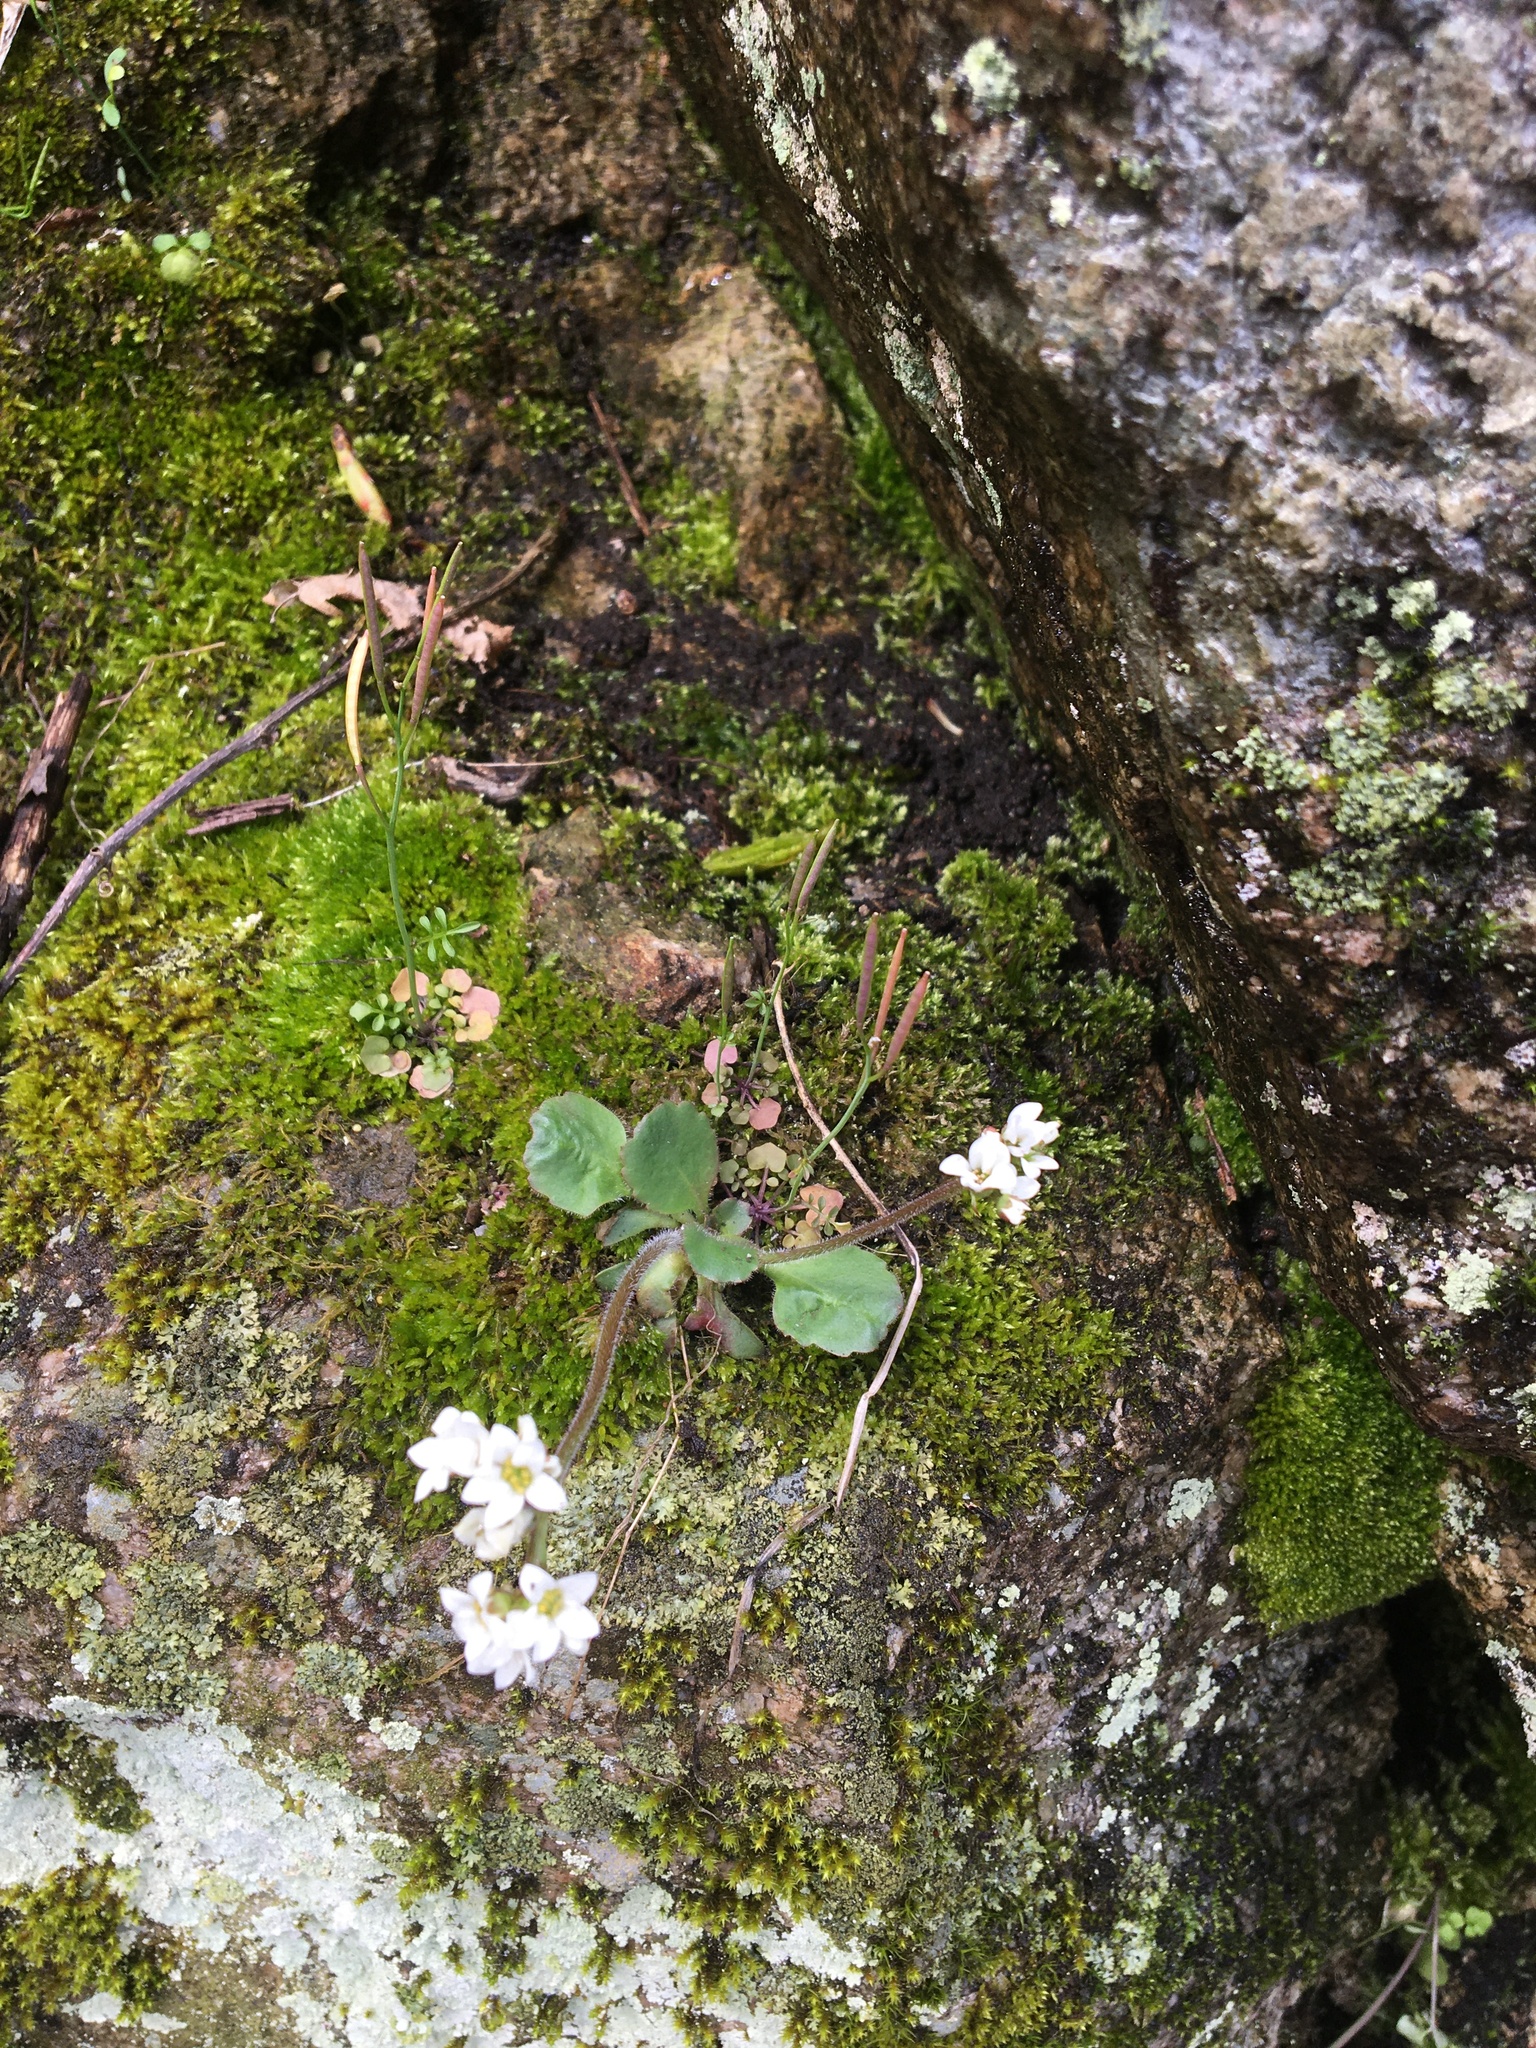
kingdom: Plantae
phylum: Tracheophyta
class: Magnoliopsida
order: Saxifragales
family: Saxifragaceae
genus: Micranthes
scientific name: Micranthes virginiensis
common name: Early saxifrage
